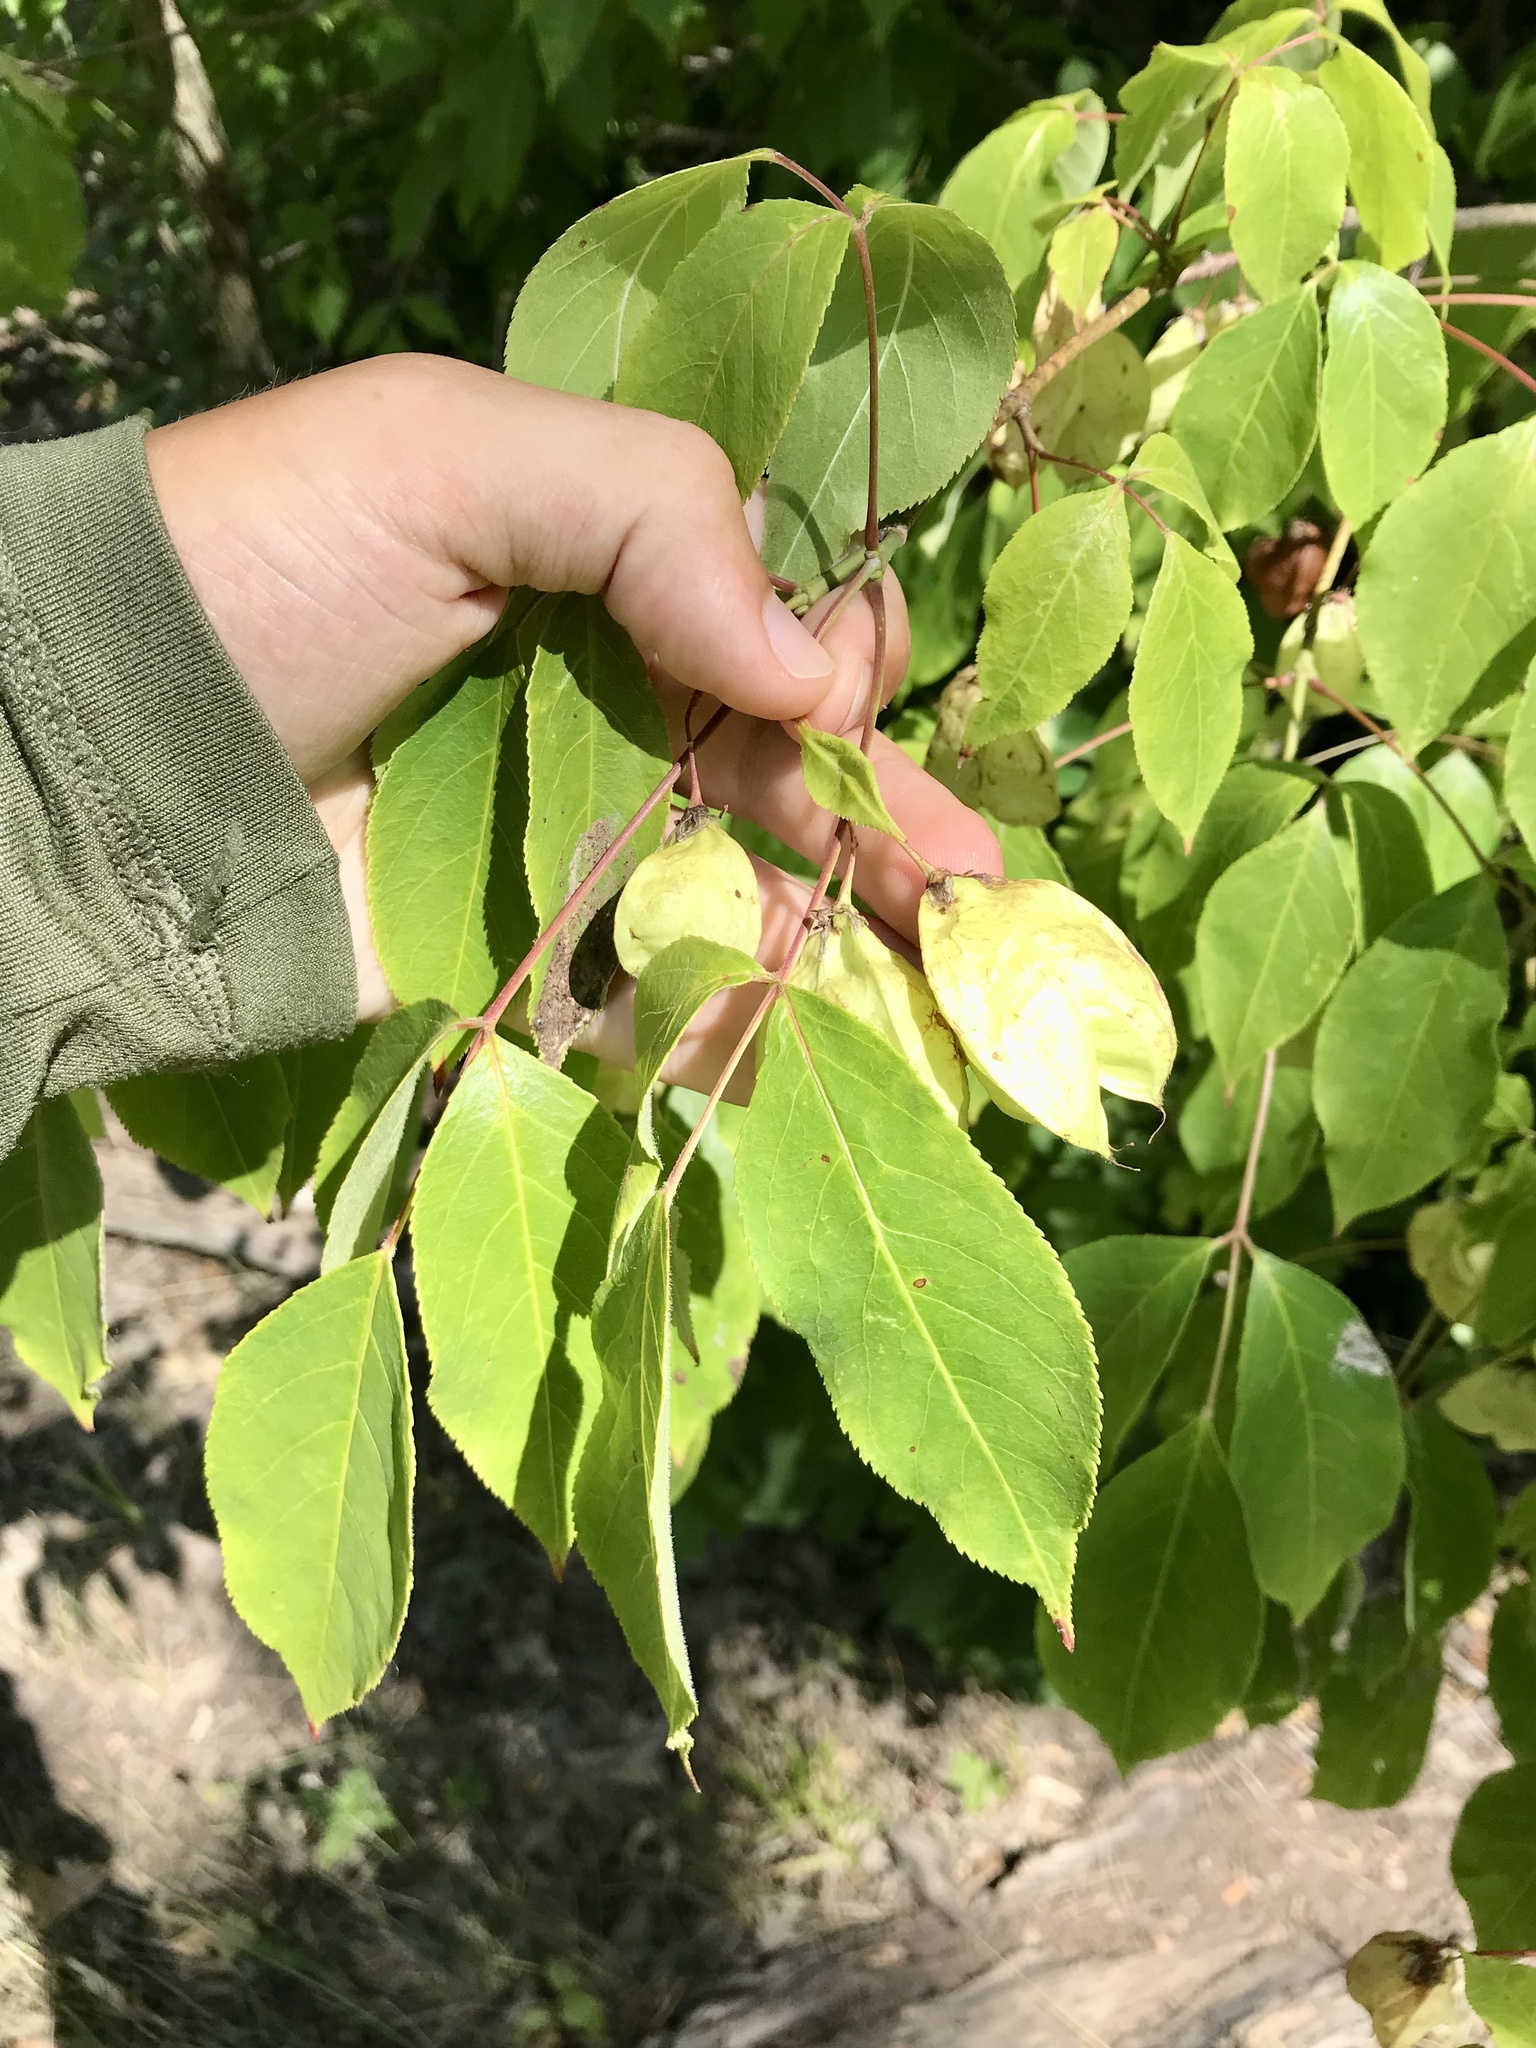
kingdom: Plantae
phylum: Tracheophyta
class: Magnoliopsida
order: Crossosomatales
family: Staphyleaceae
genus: Staphylea
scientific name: Staphylea trifolia
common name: American bladdernut
